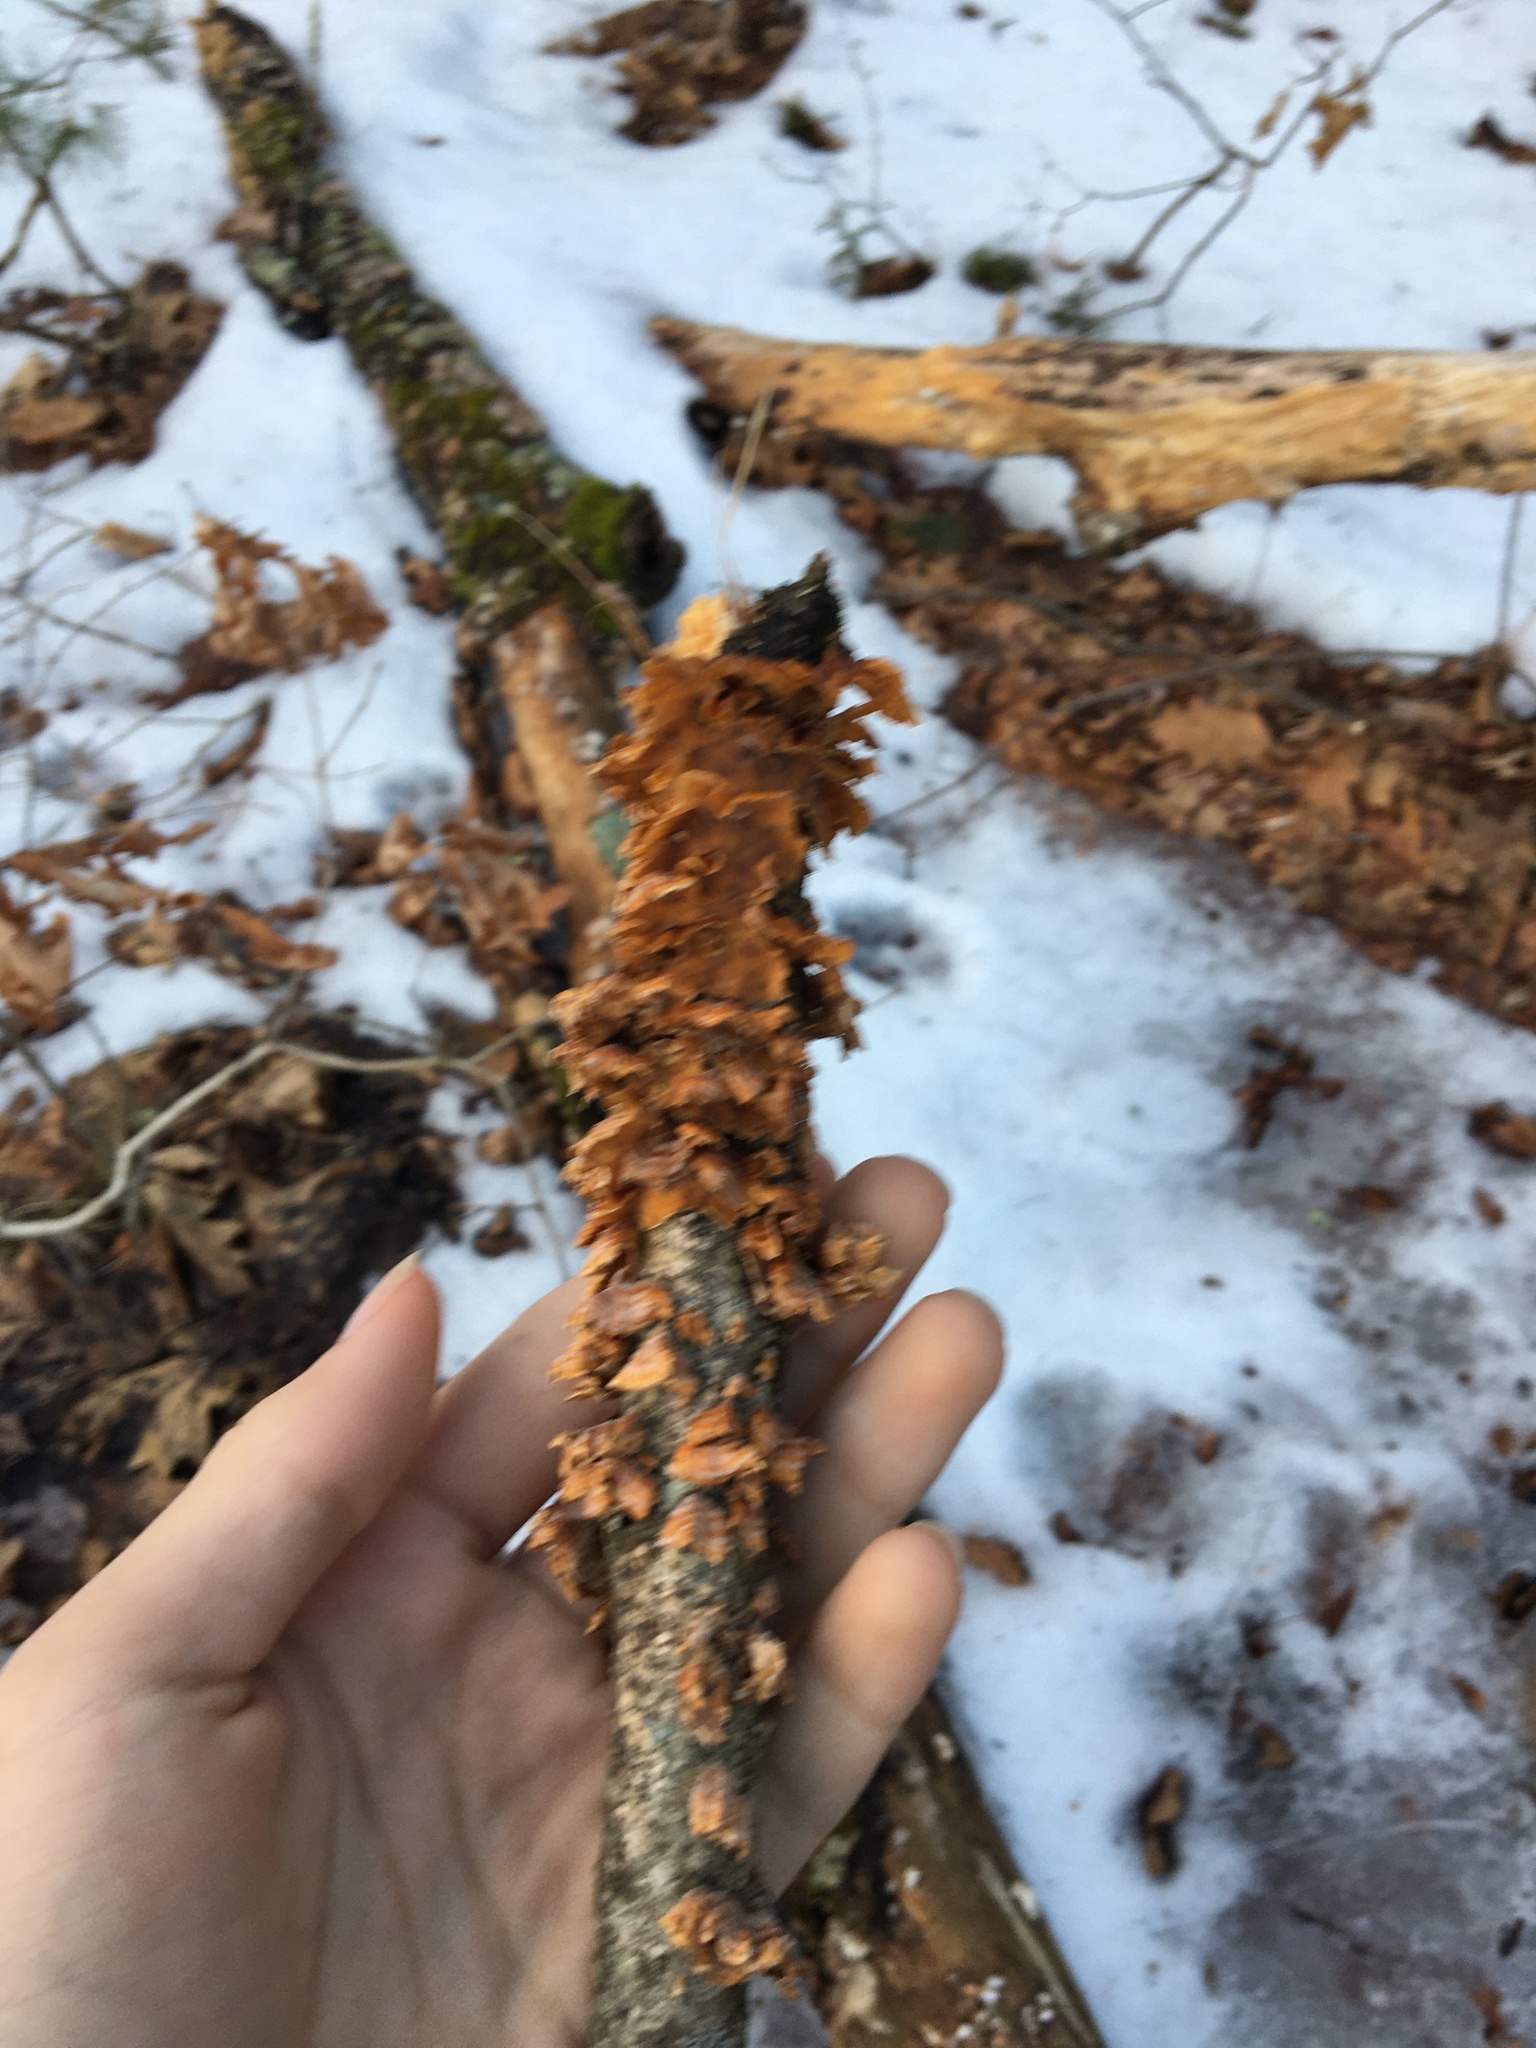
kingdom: Fungi
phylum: Basidiomycota
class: Agaricomycetes
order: Russulales
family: Stereaceae
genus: Stereum
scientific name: Stereum complicatum
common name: Crowded parchment
